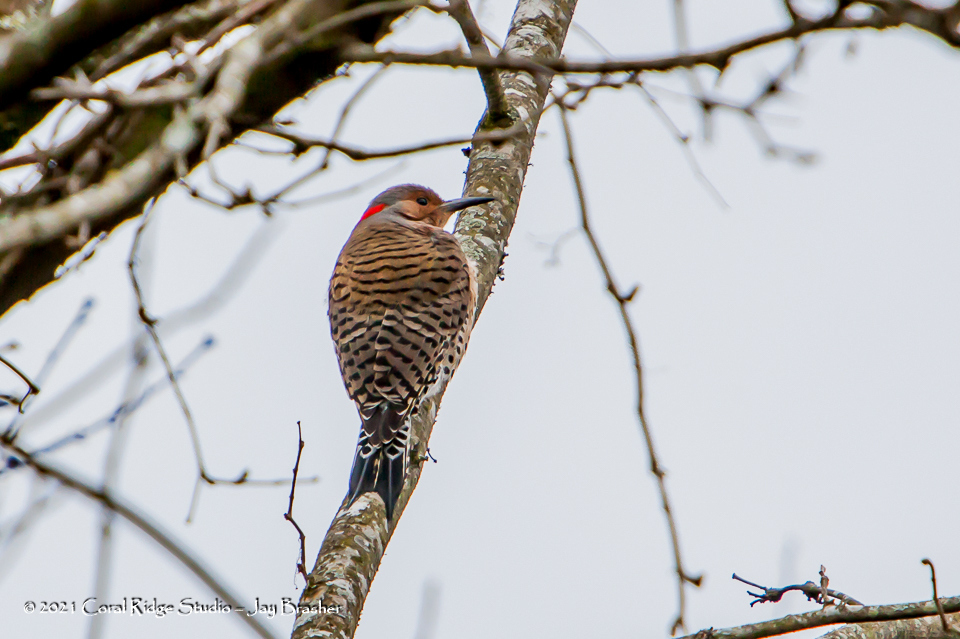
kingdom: Animalia
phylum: Chordata
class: Aves
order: Piciformes
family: Picidae
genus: Colaptes
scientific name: Colaptes auratus
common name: Northern flicker
